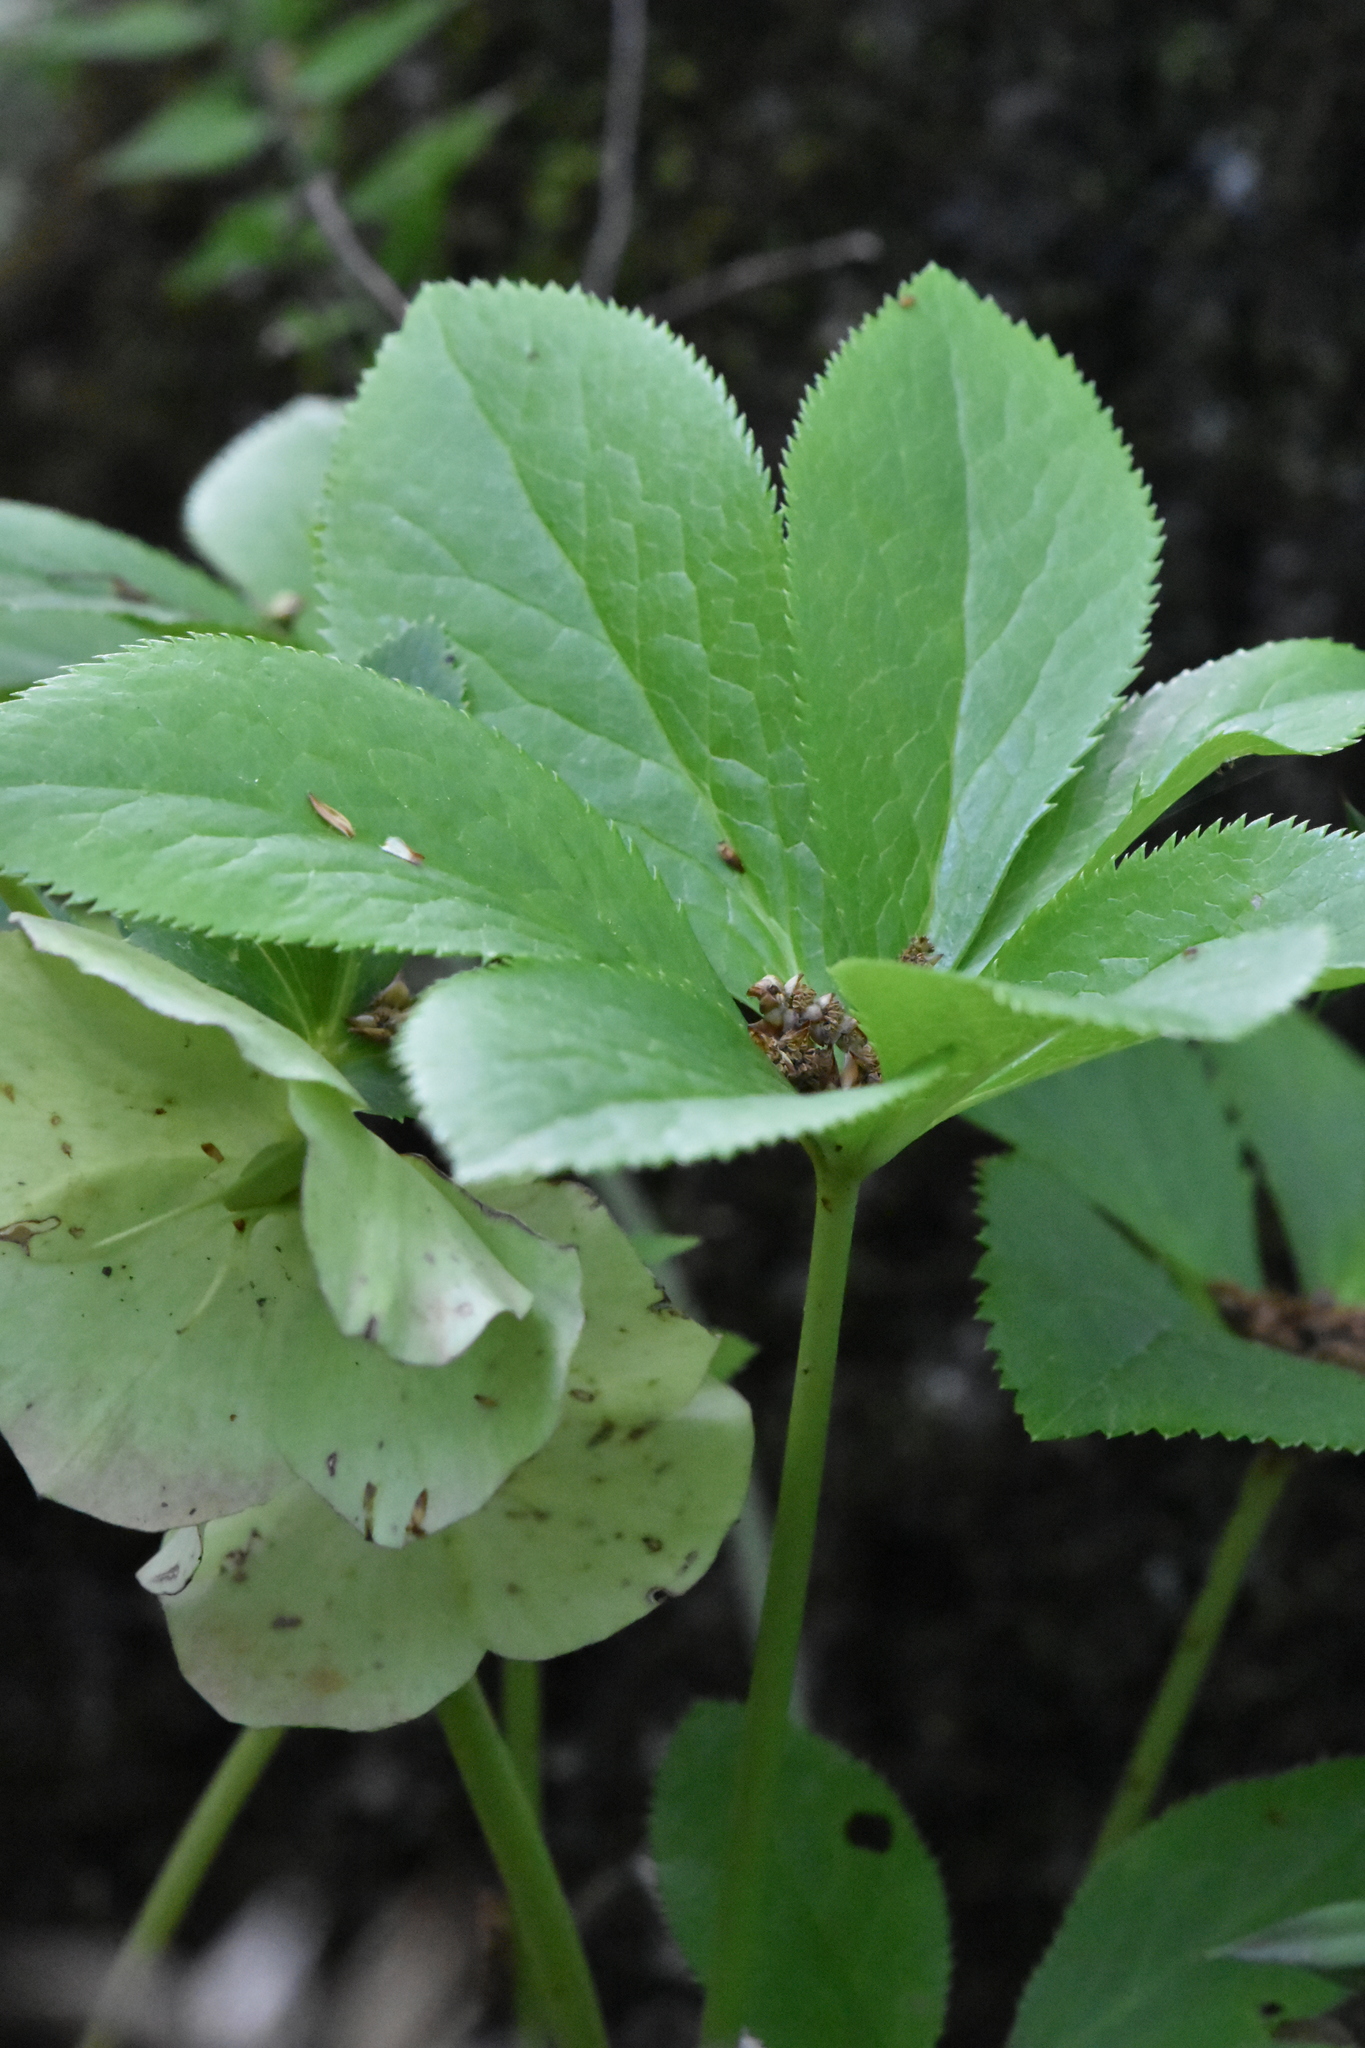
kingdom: Plantae
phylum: Tracheophyta
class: Magnoliopsida
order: Ranunculales
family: Ranunculaceae
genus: Helleborus
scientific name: Helleborus orientalis
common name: Lenten-rose
